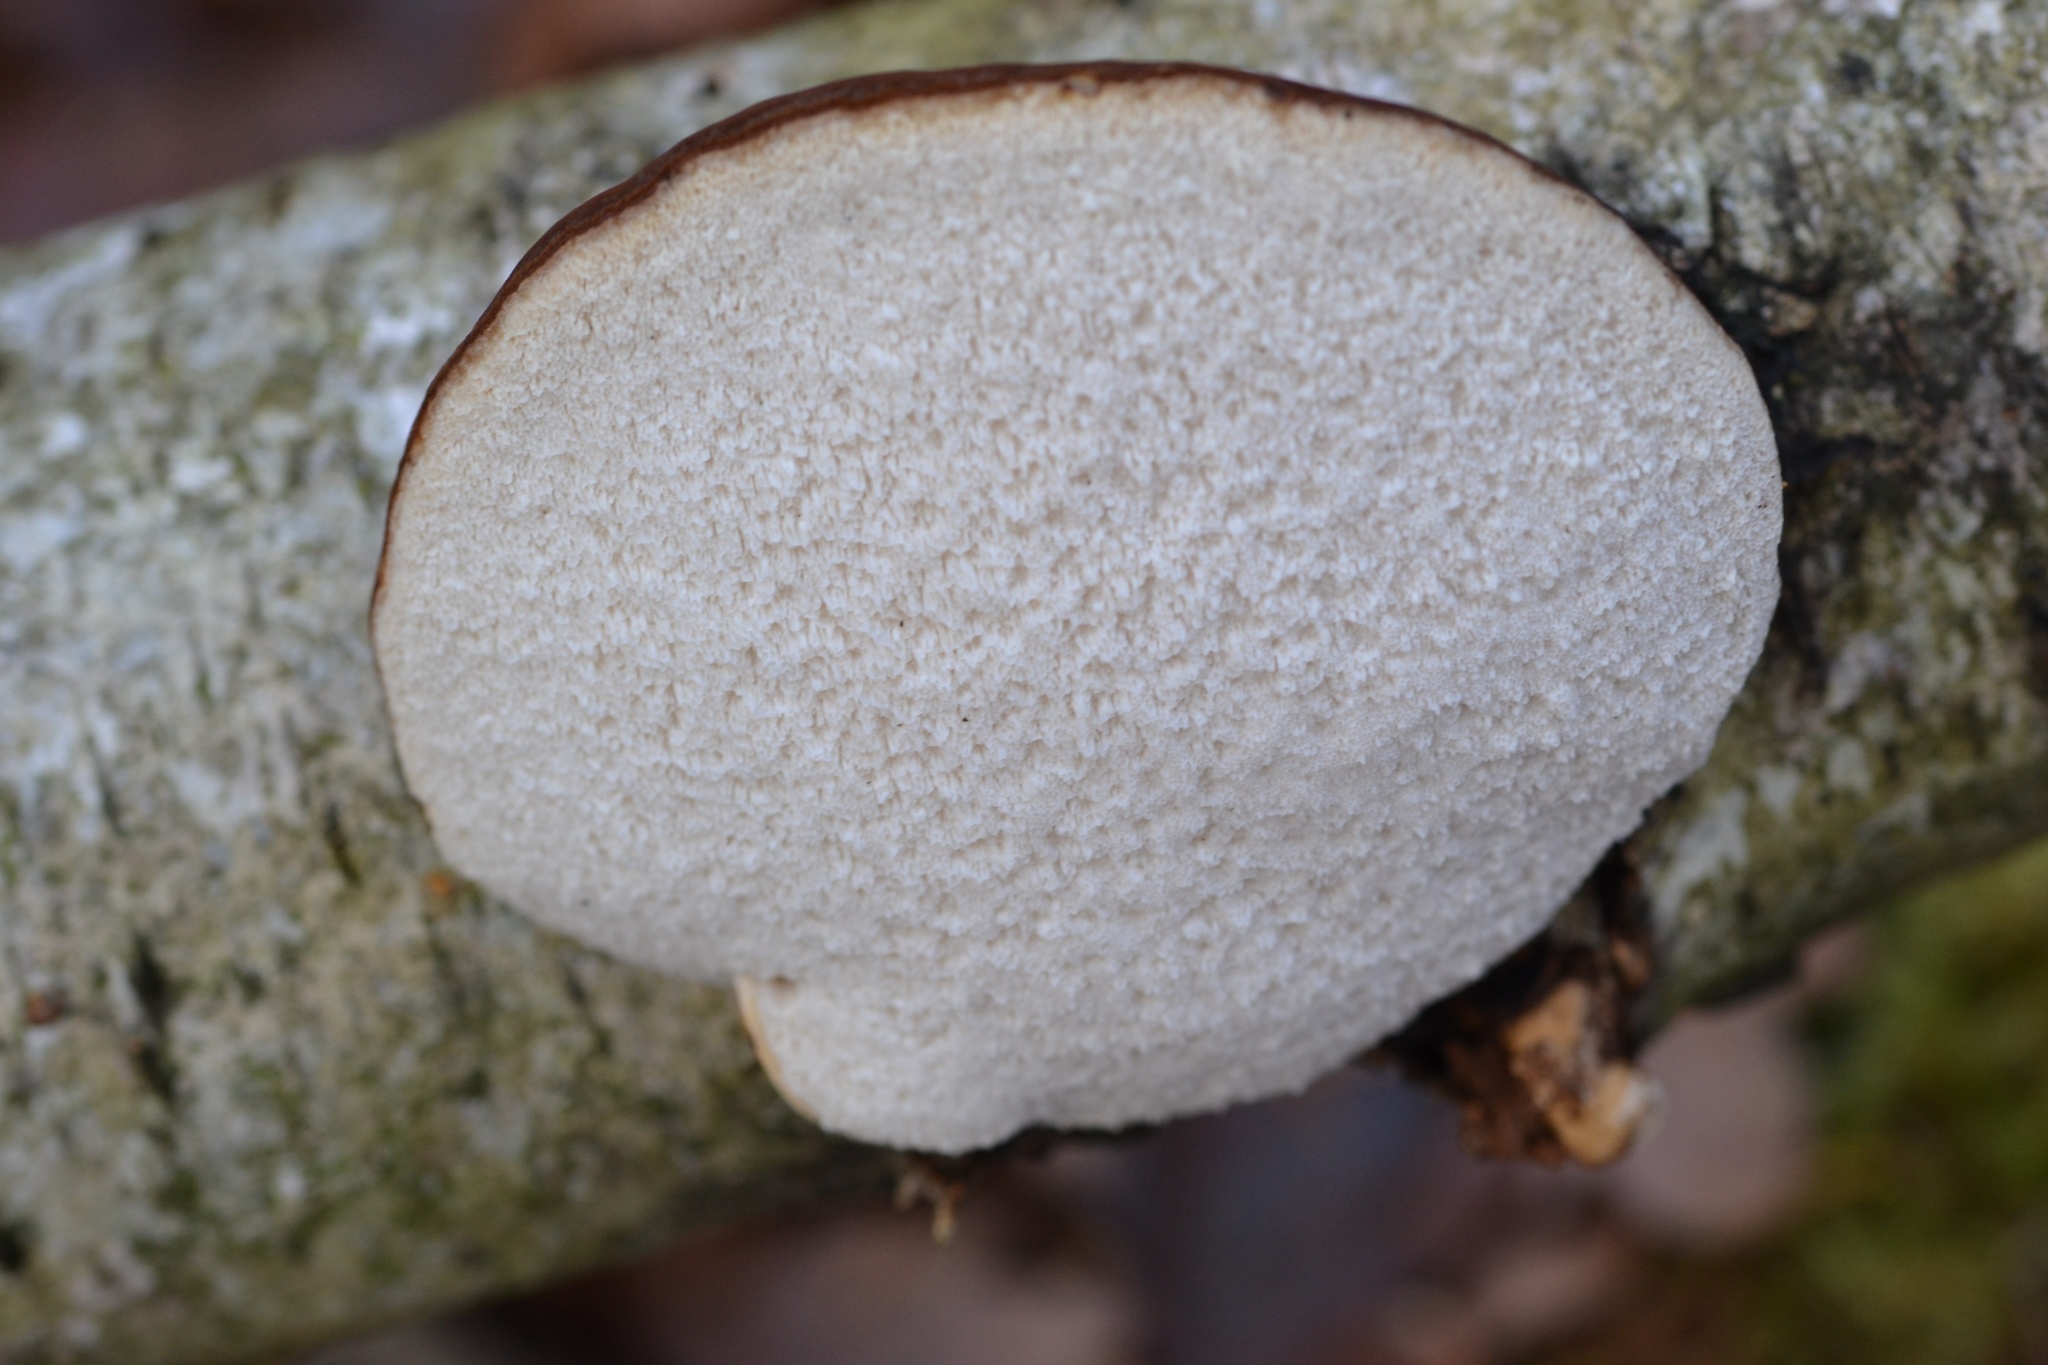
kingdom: Fungi
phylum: Basidiomycota
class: Agaricomycetes
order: Polyporales
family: Fomitopsidaceae
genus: Fomitopsis
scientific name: Fomitopsis betulina
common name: Birch polypore
